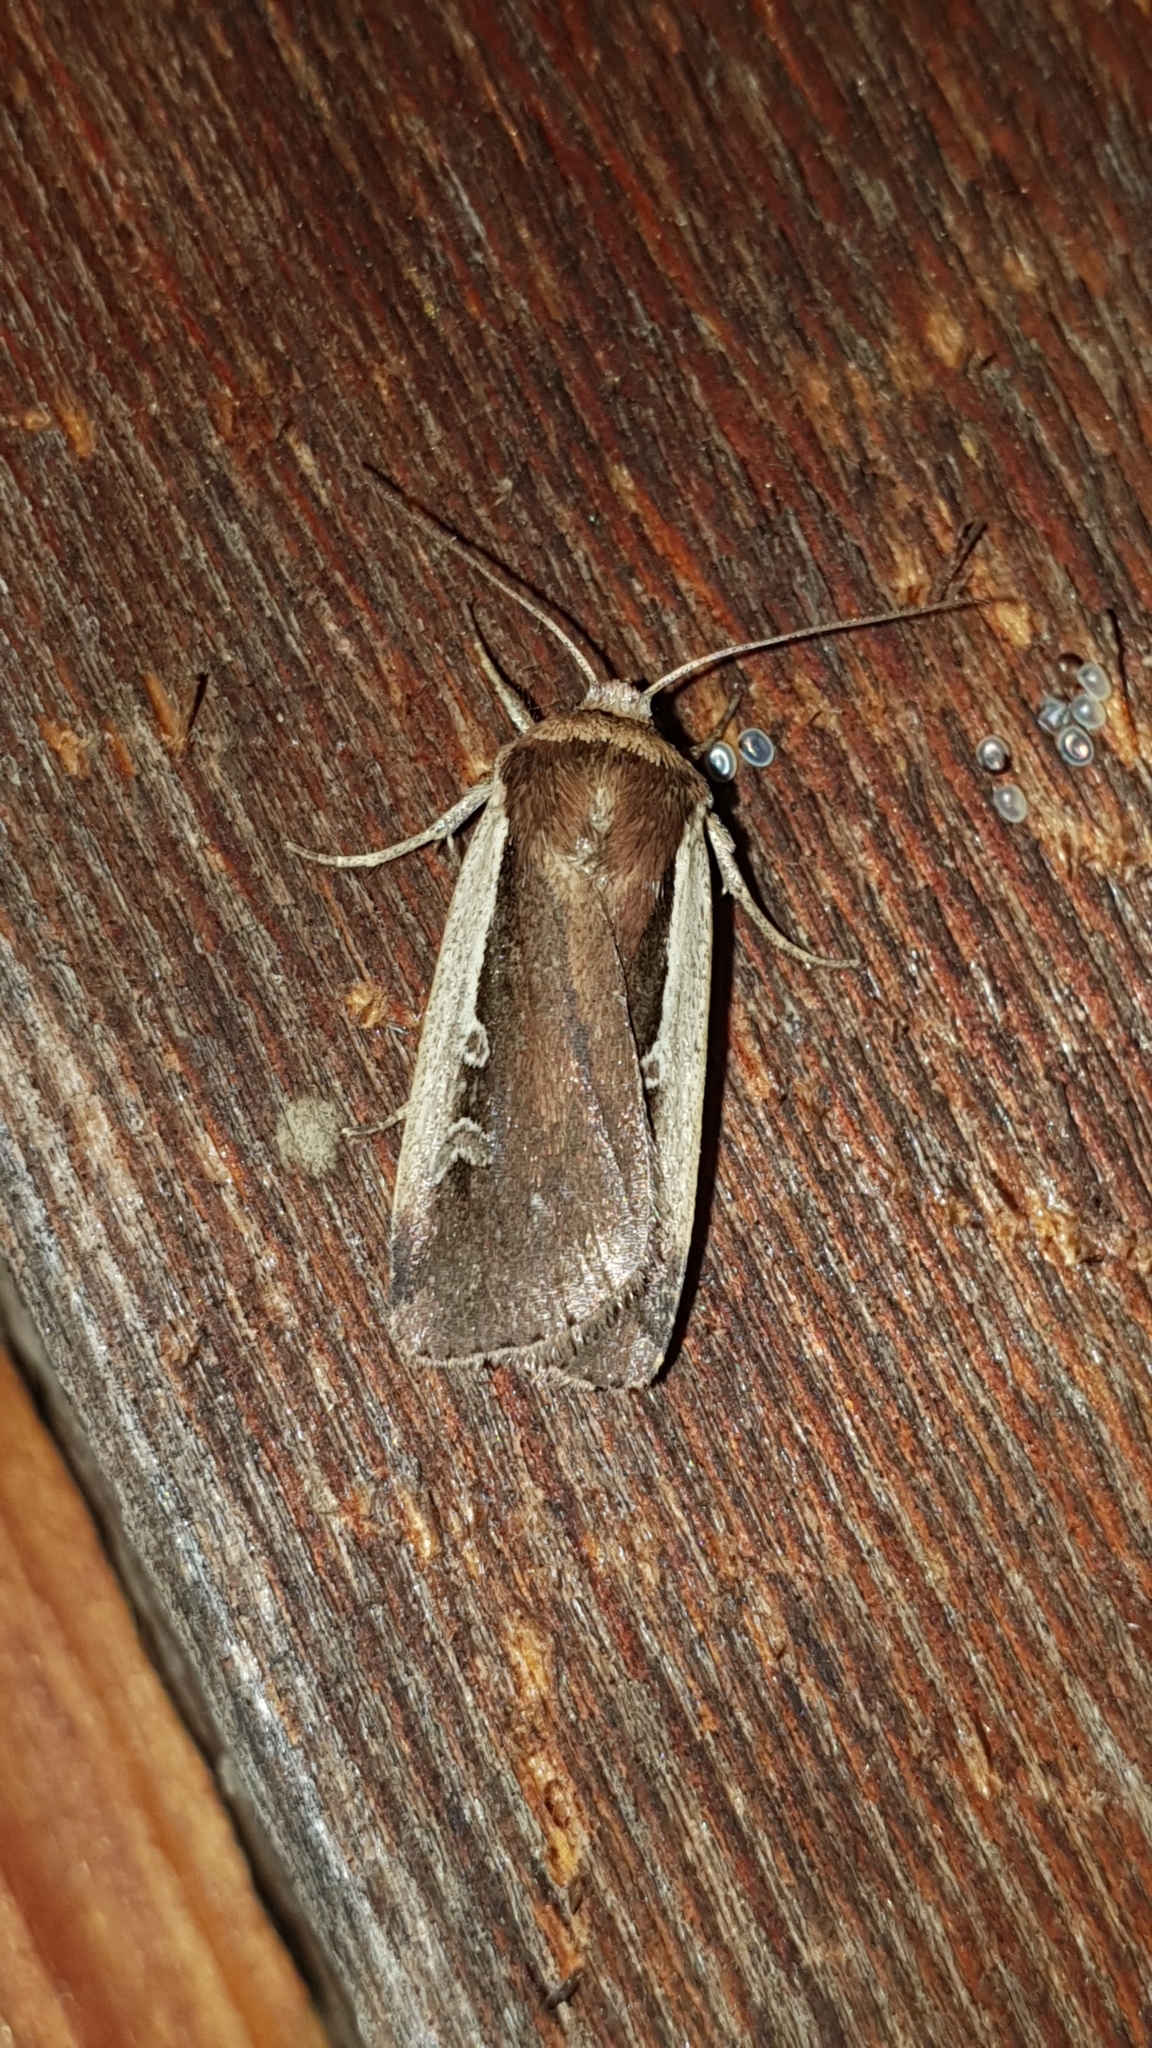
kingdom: Animalia
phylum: Arthropoda
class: Insecta
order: Lepidoptera
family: Noctuidae
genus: Ochropleura
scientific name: Ochropleura plecta
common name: Flame shoulder
